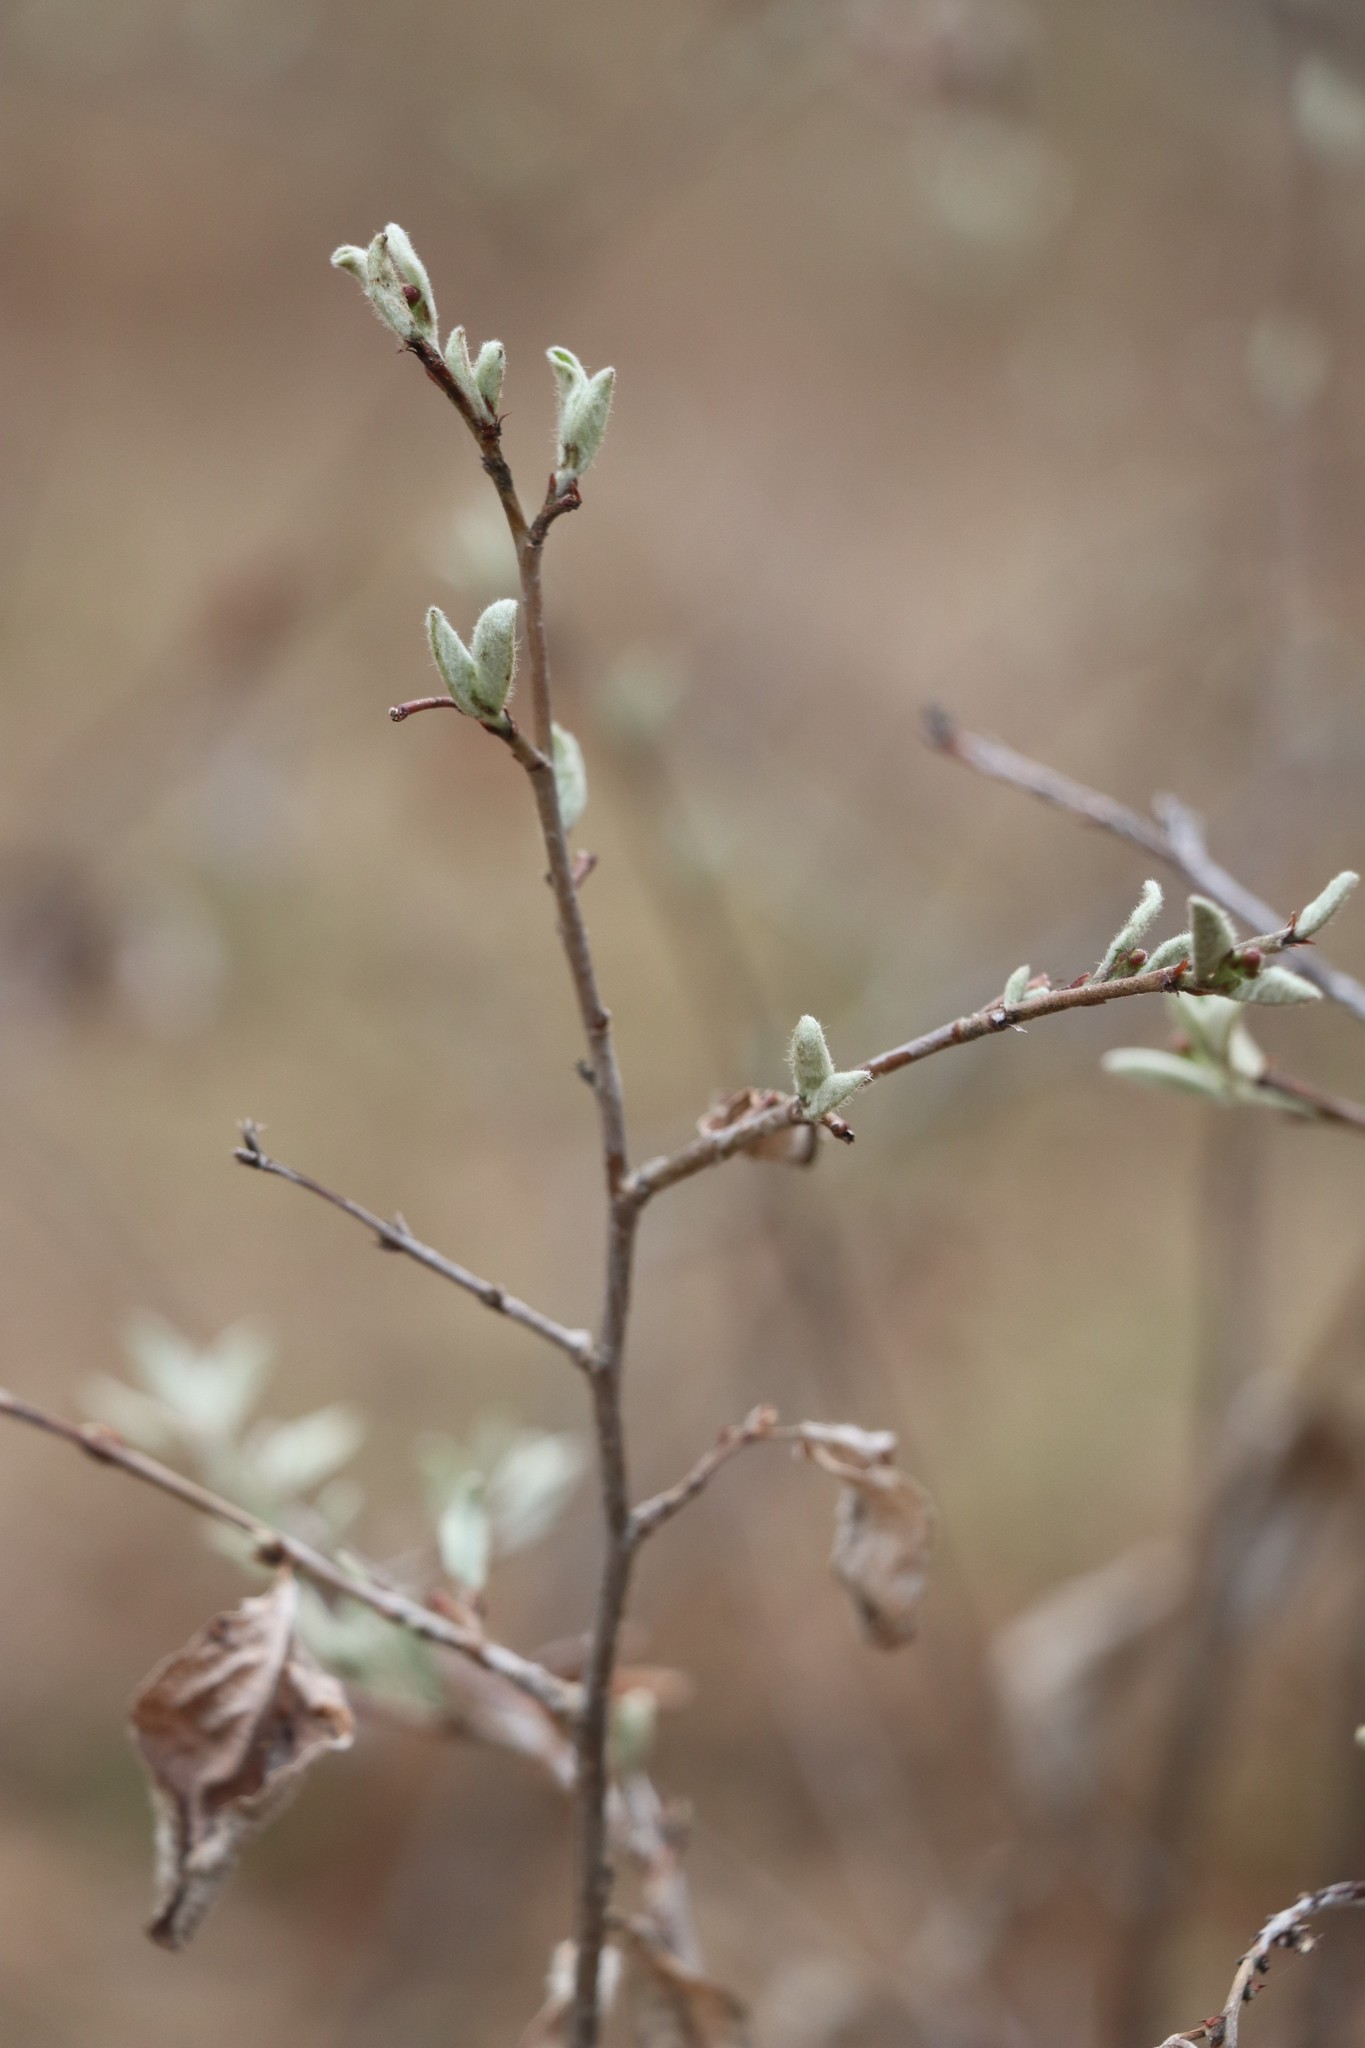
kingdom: Plantae
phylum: Tracheophyta
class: Magnoliopsida
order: Rosales
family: Rosaceae
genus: Cotoneaster
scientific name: Cotoneaster melanocarpus
